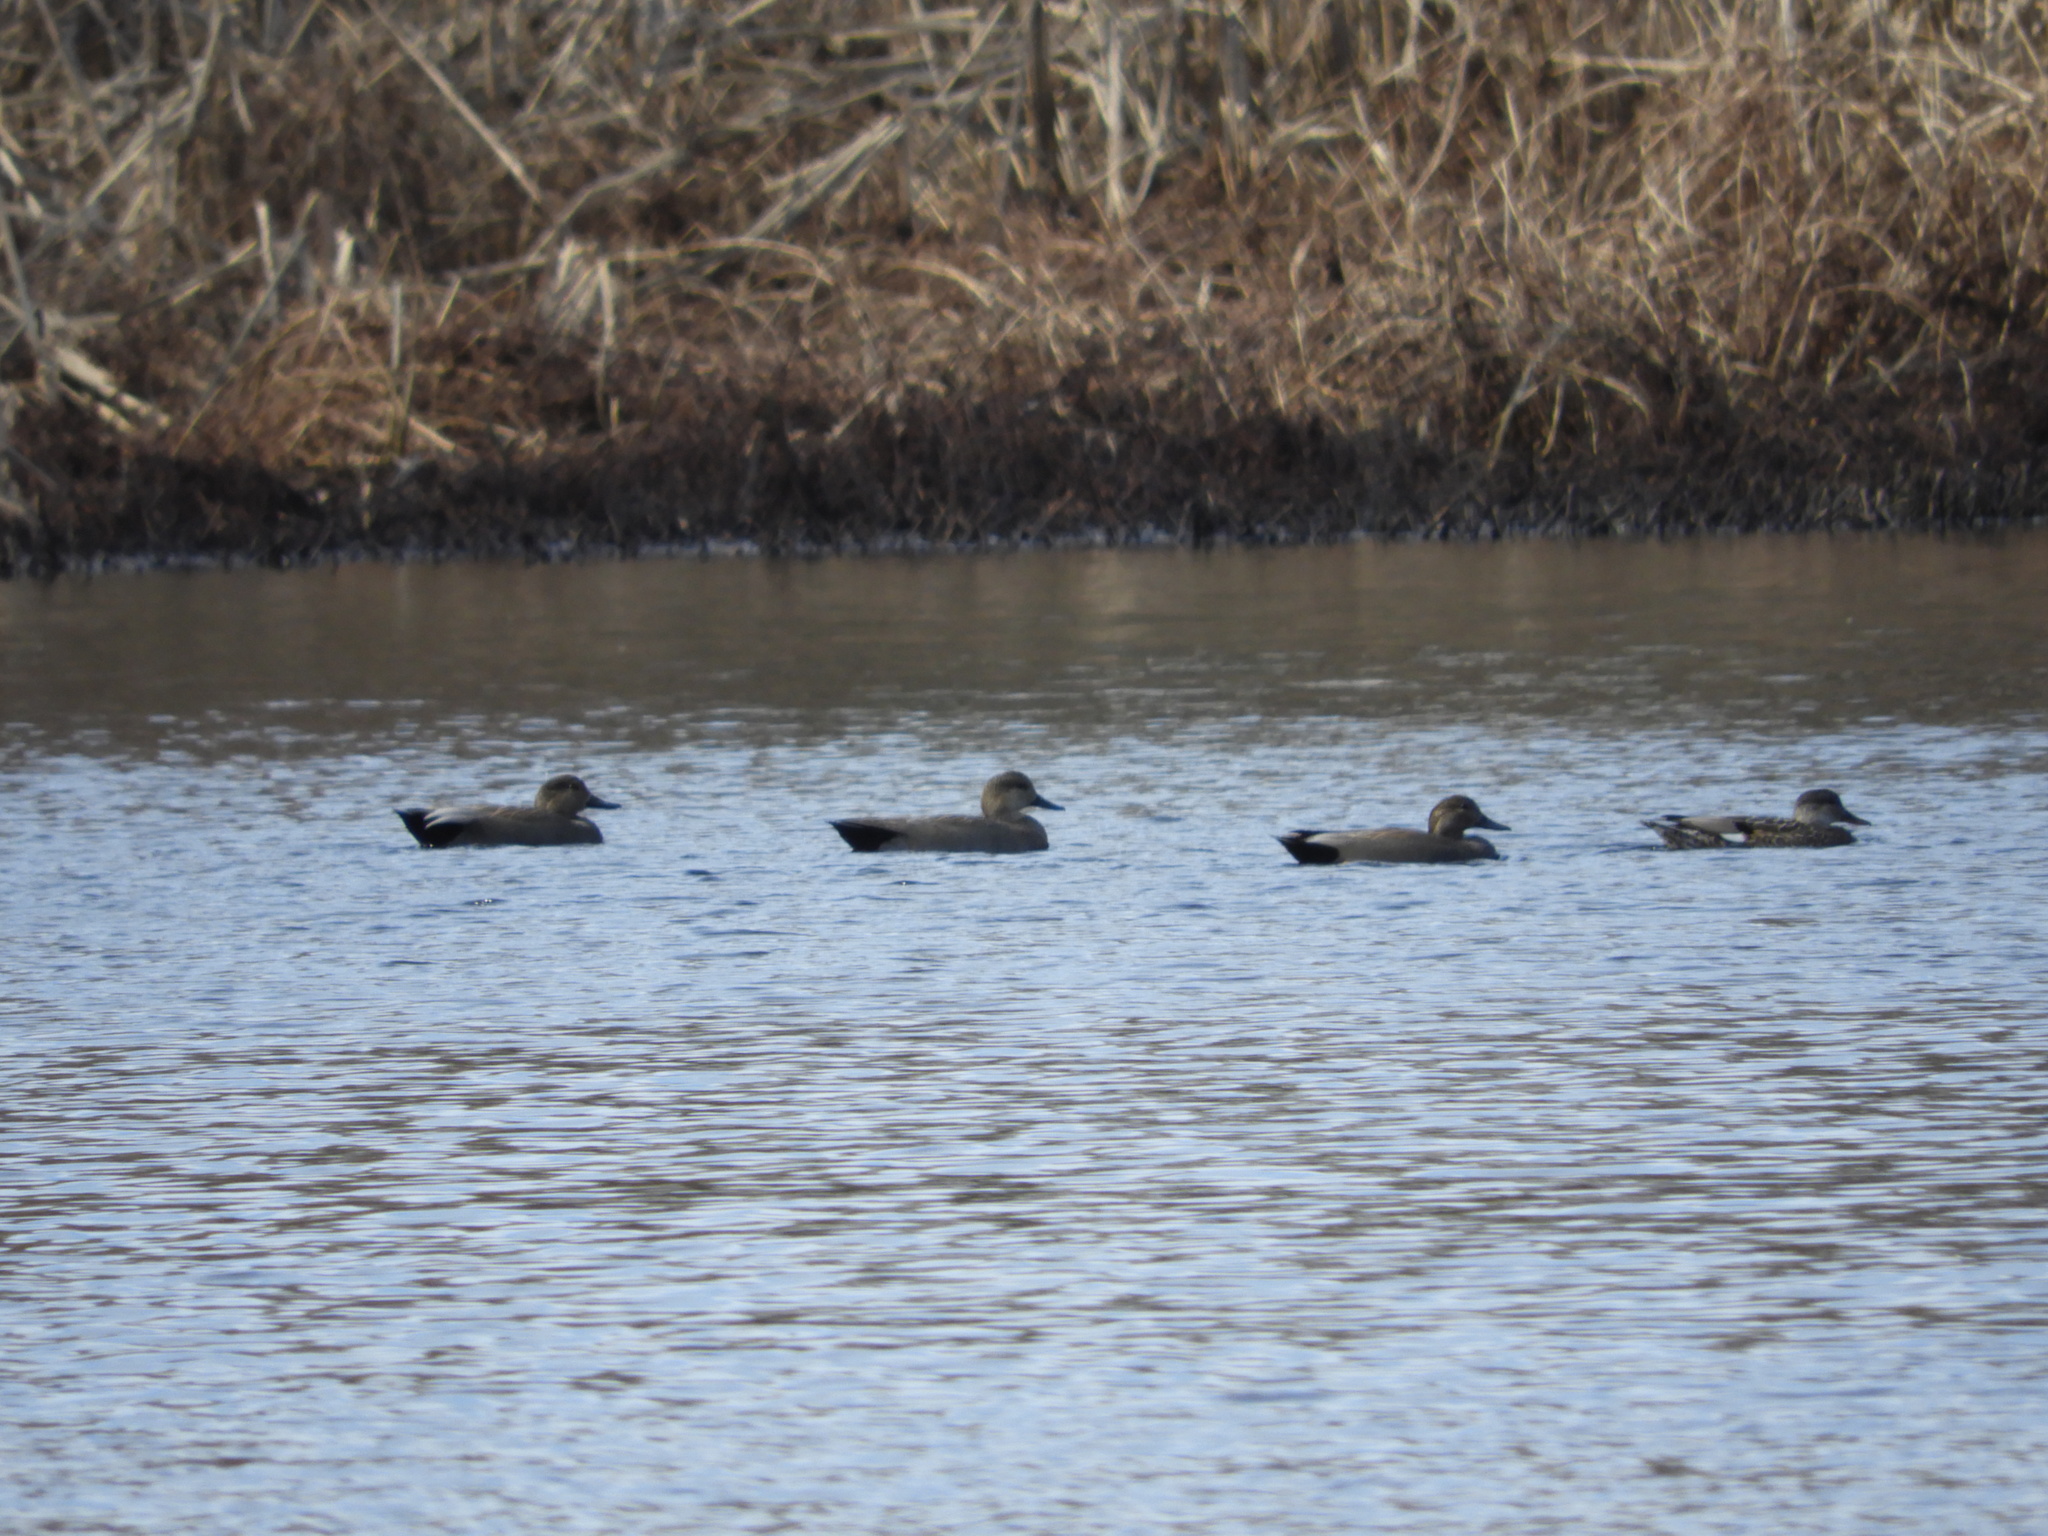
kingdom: Animalia
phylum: Chordata
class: Aves
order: Anseriformes
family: Anatidae
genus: Mareca
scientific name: Mareca strepera
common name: Gadwall
